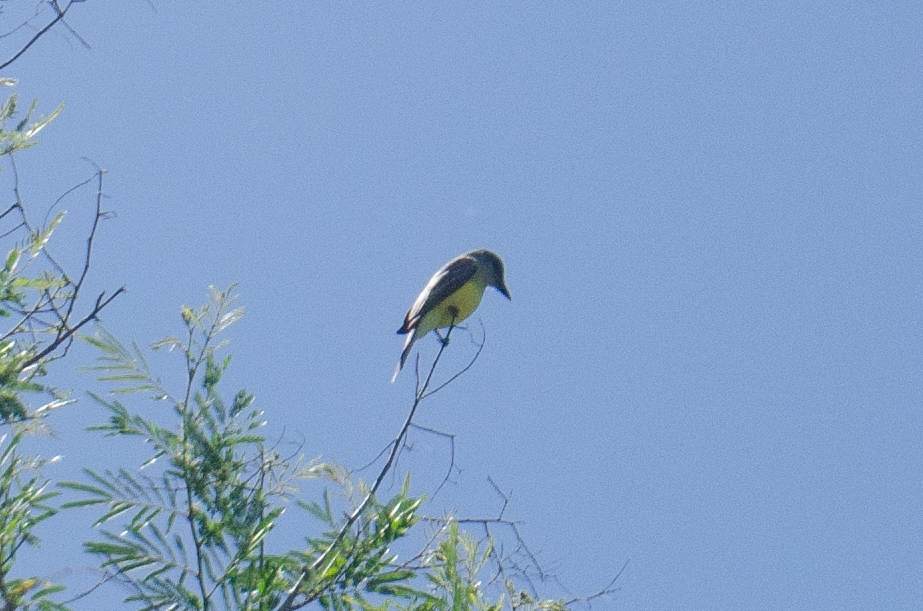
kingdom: Animalia
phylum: Chordata
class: Aves
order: Passeriformes
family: Tyrannidae
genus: Tyrannus
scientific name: Tyrannus melancholicus
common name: Tropical kingbird
